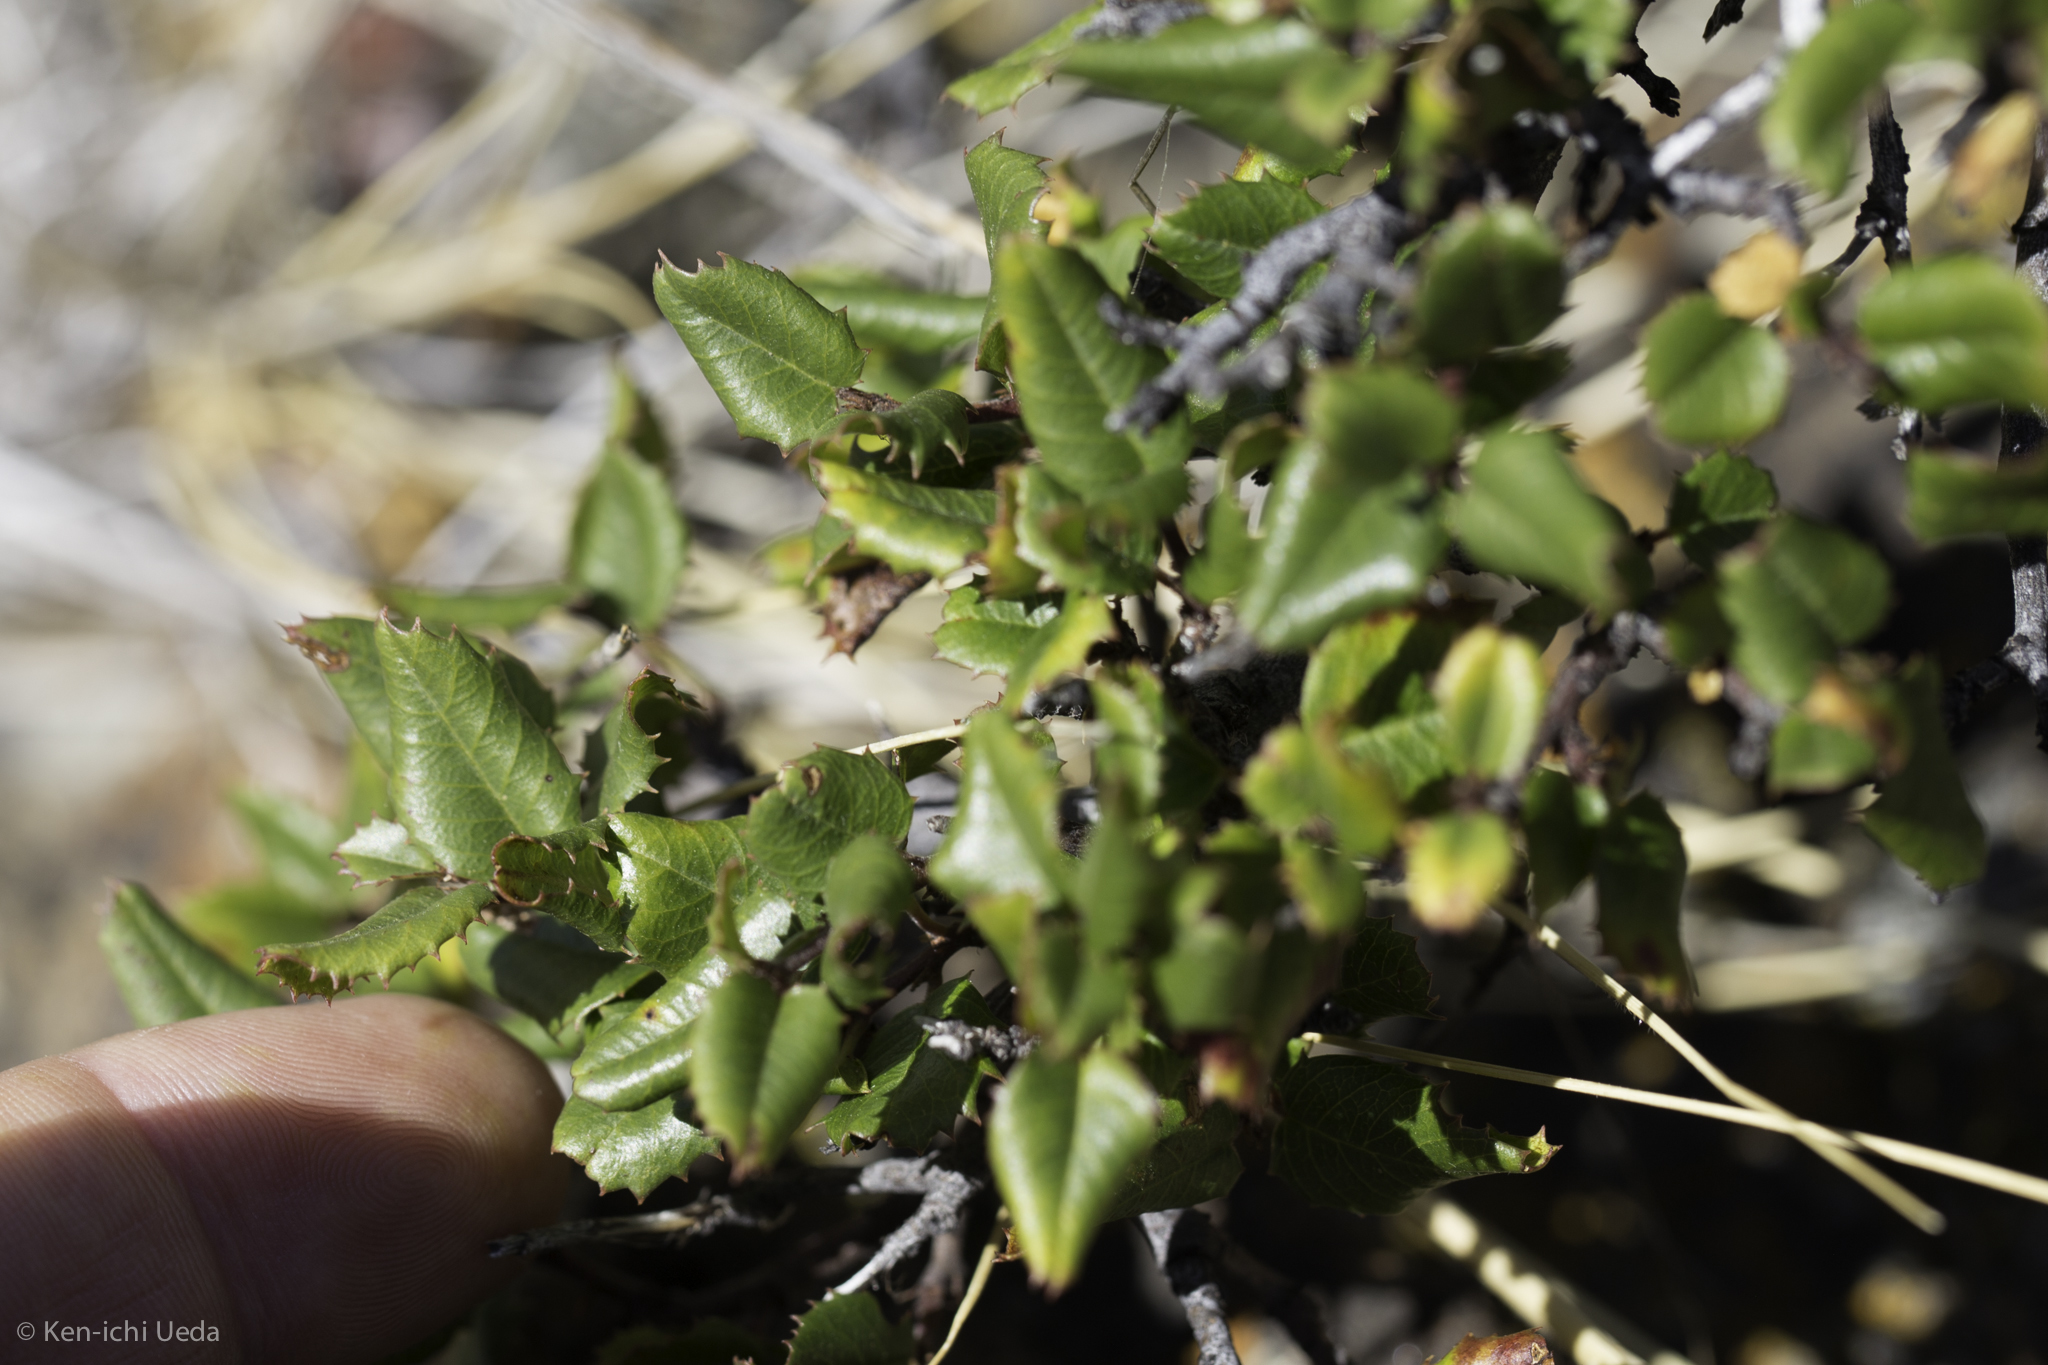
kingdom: Plantae
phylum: Tracheophyta
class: Magnoliopsida
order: Rosales
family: Rhamnaceae
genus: Endotropis
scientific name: Endotropis crocea
